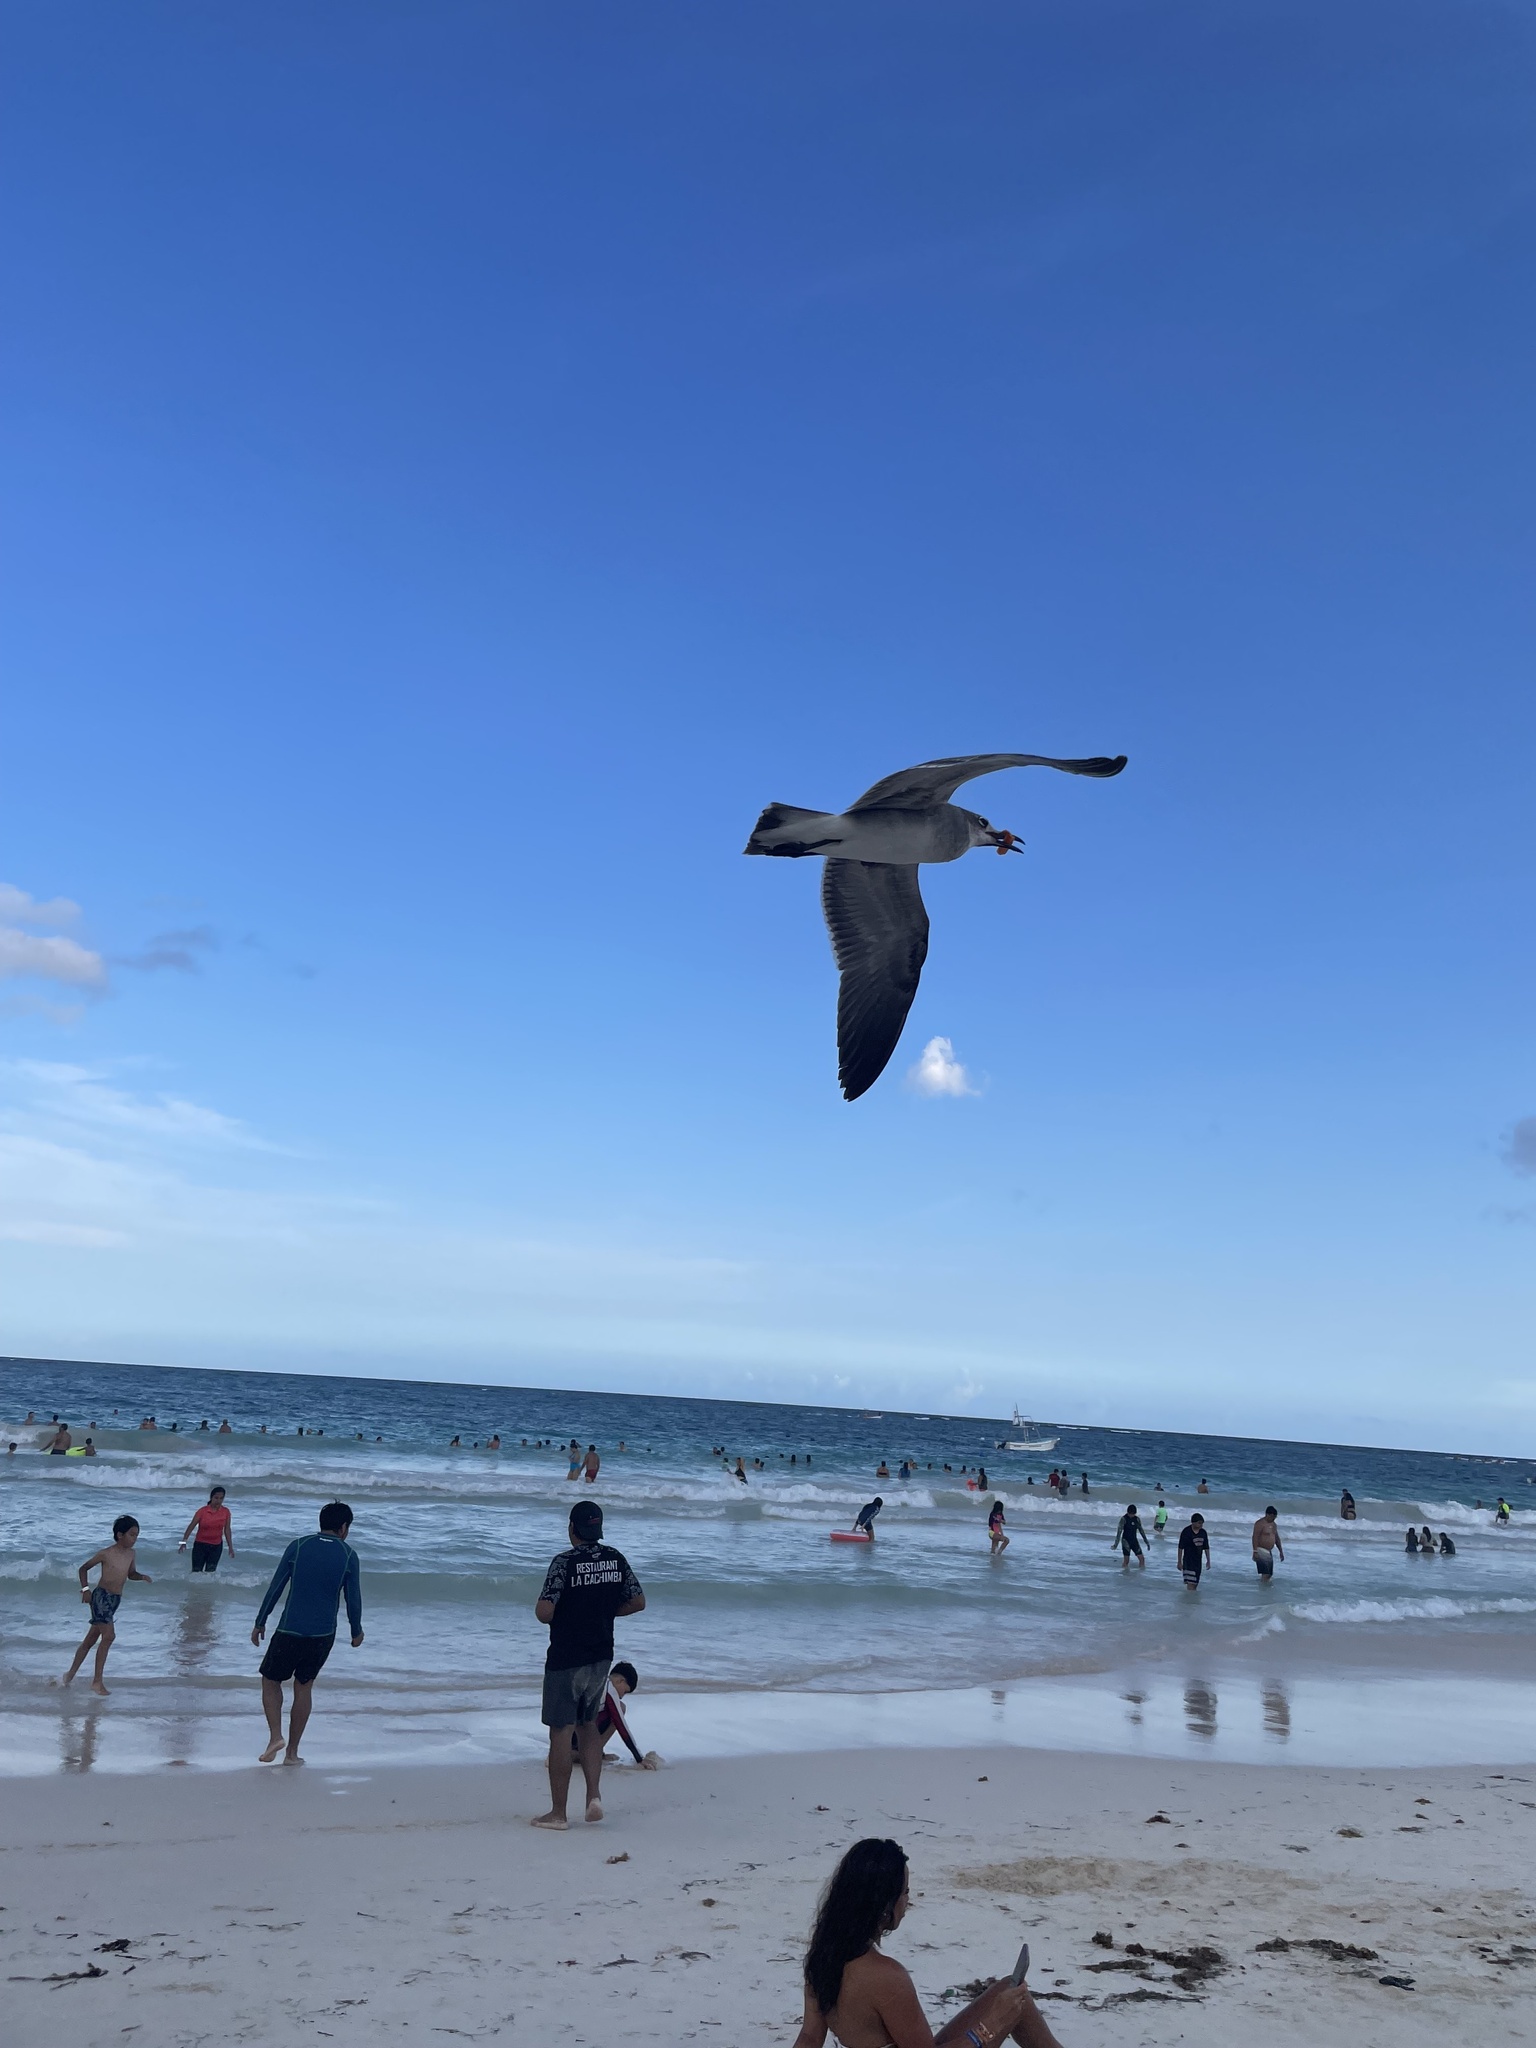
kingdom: Animalia
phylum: Chordata
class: Aves
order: Charadriiformes
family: Laridae
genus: Leucophaeus
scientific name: Leucophaeus atricilla
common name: Laughing gull
